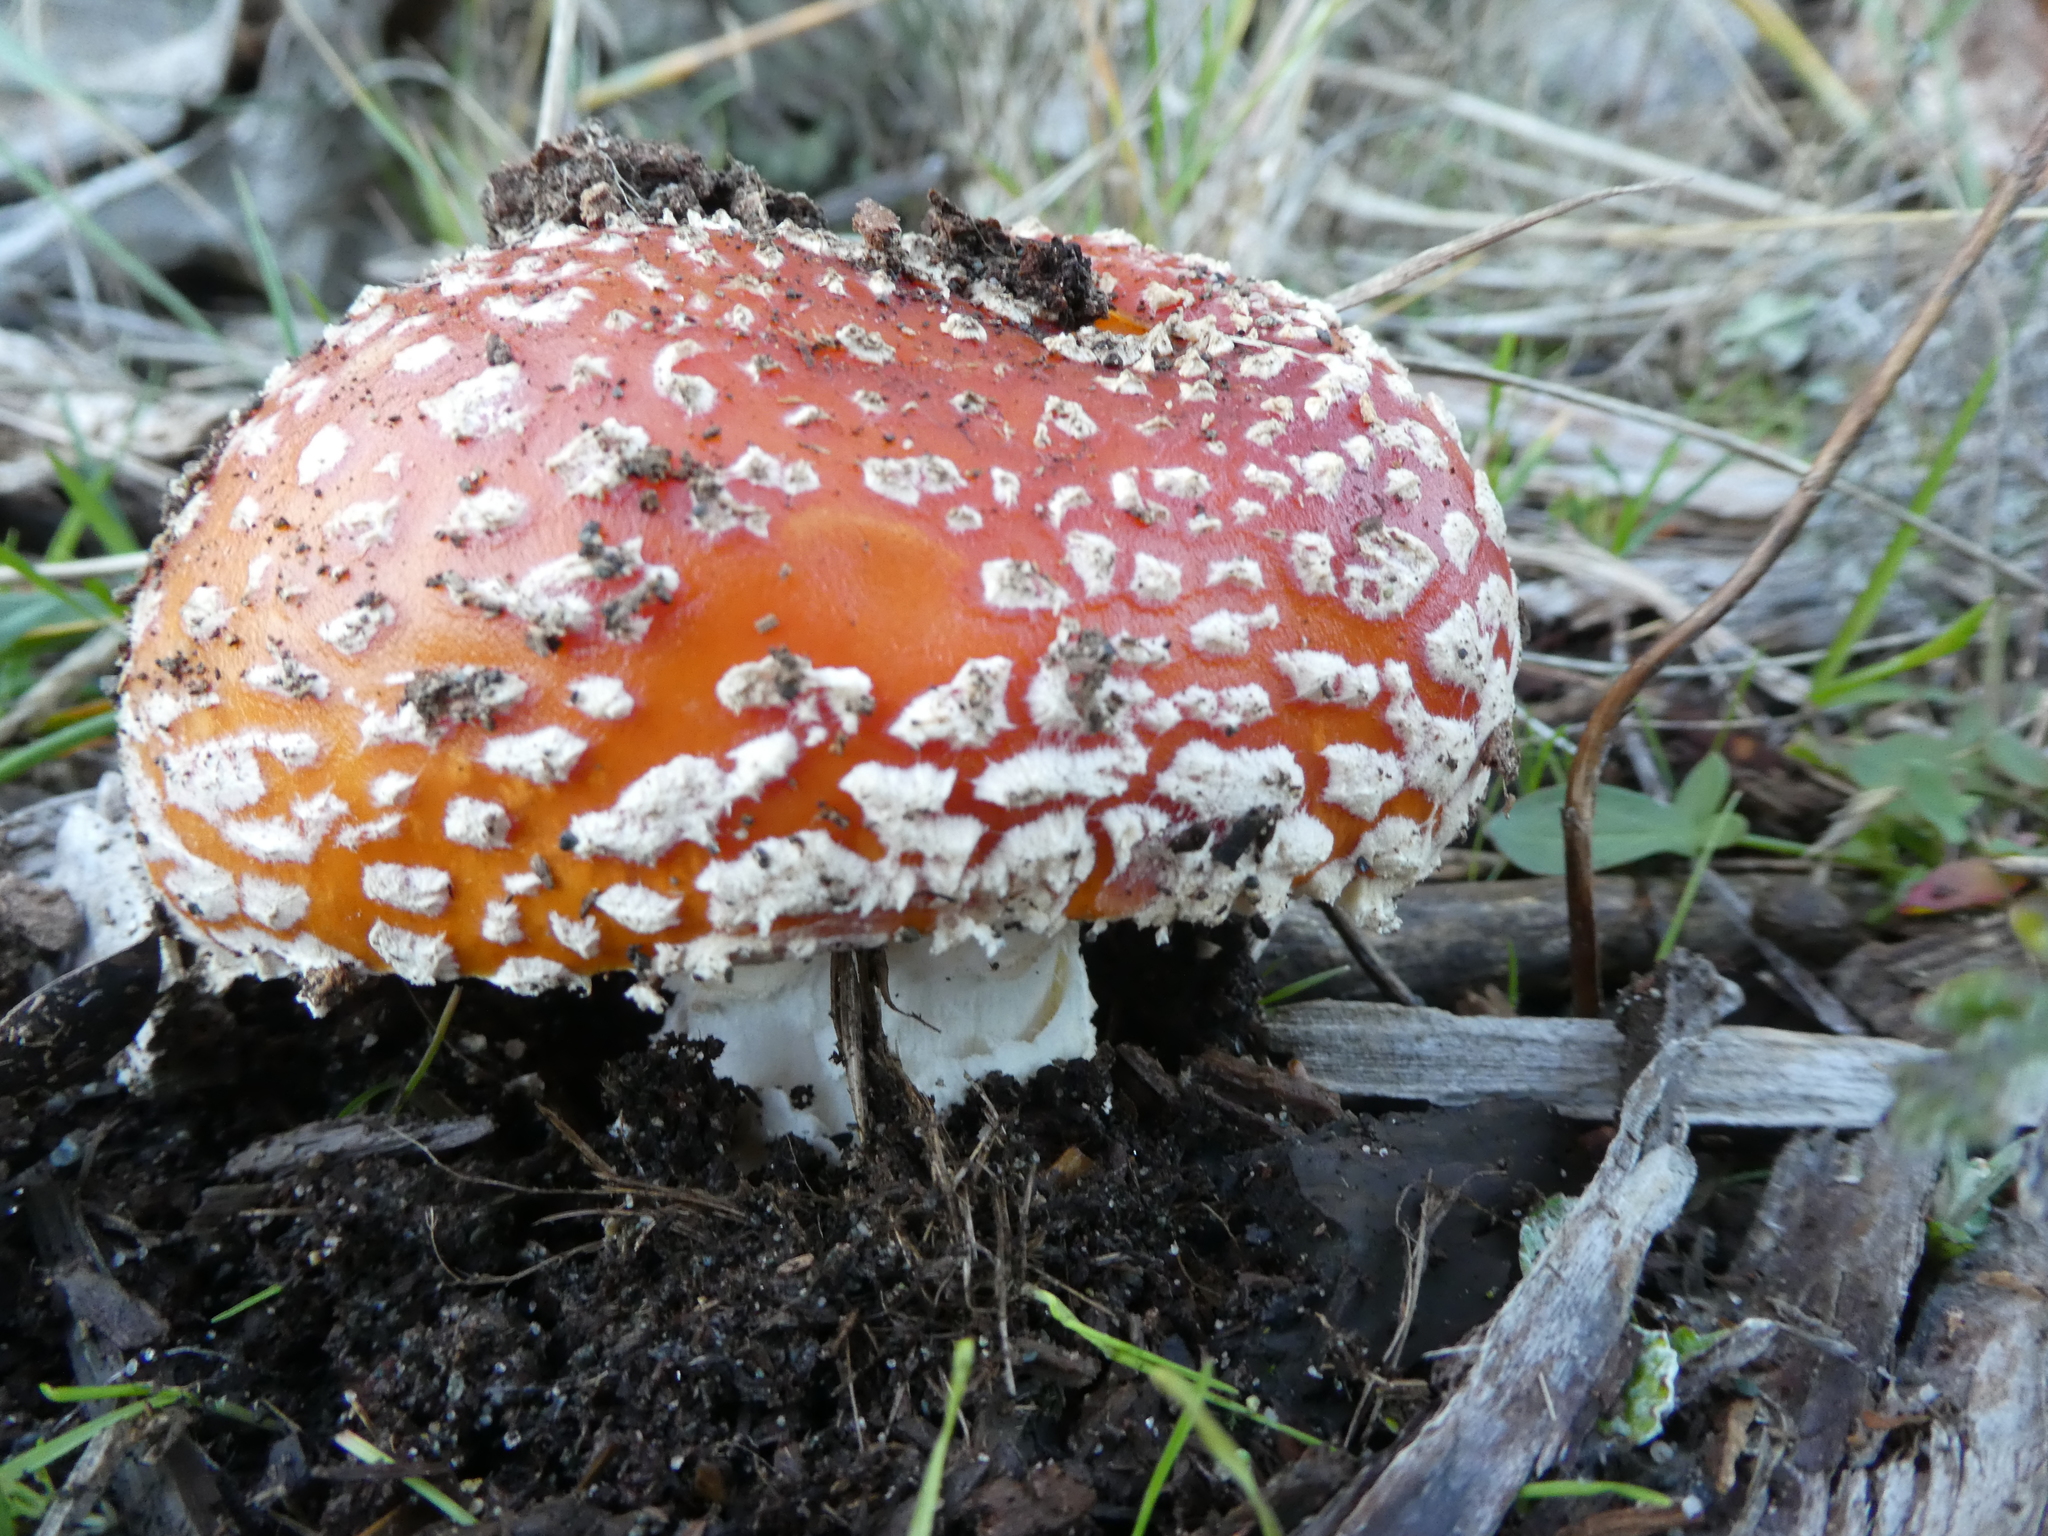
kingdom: Fungi
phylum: Basidiomycota
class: Agaricomycetes
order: Agaricales
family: Amanitaceae
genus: Amanita
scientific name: Amanita muscaria
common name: Fly agaric
